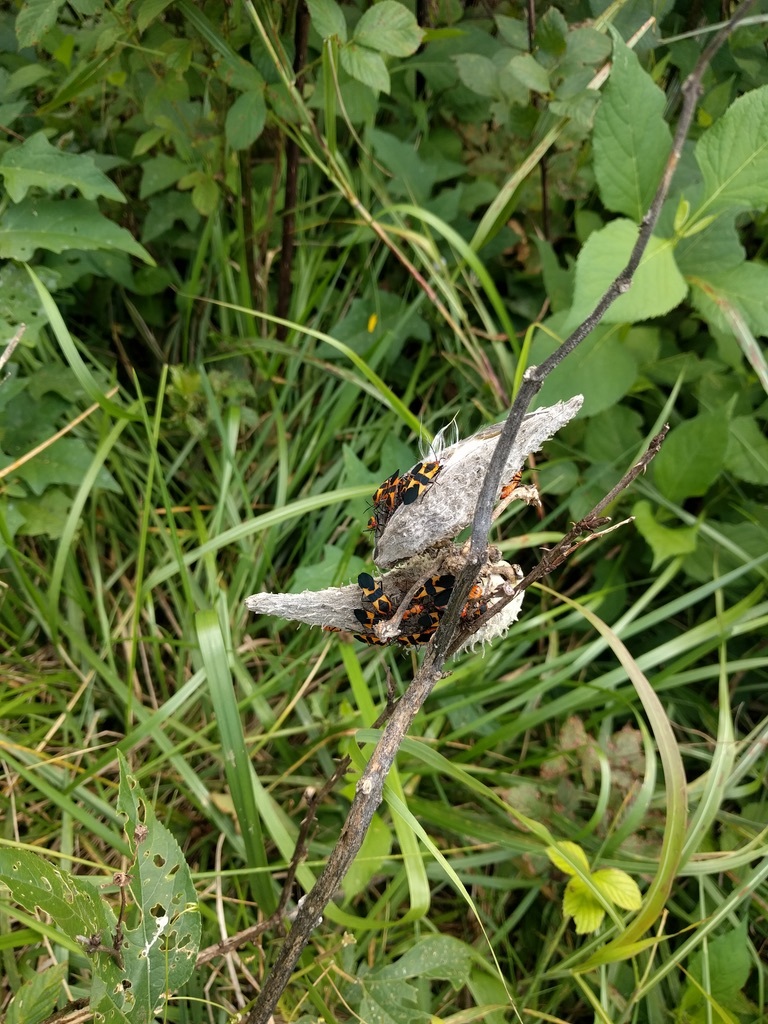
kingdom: Animalia
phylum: Arthropoda
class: Insecta
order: Hemiptera
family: Lygaeidae
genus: Oncopeltus
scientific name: Oncopeltus fasciatus
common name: Large milkweed bug
